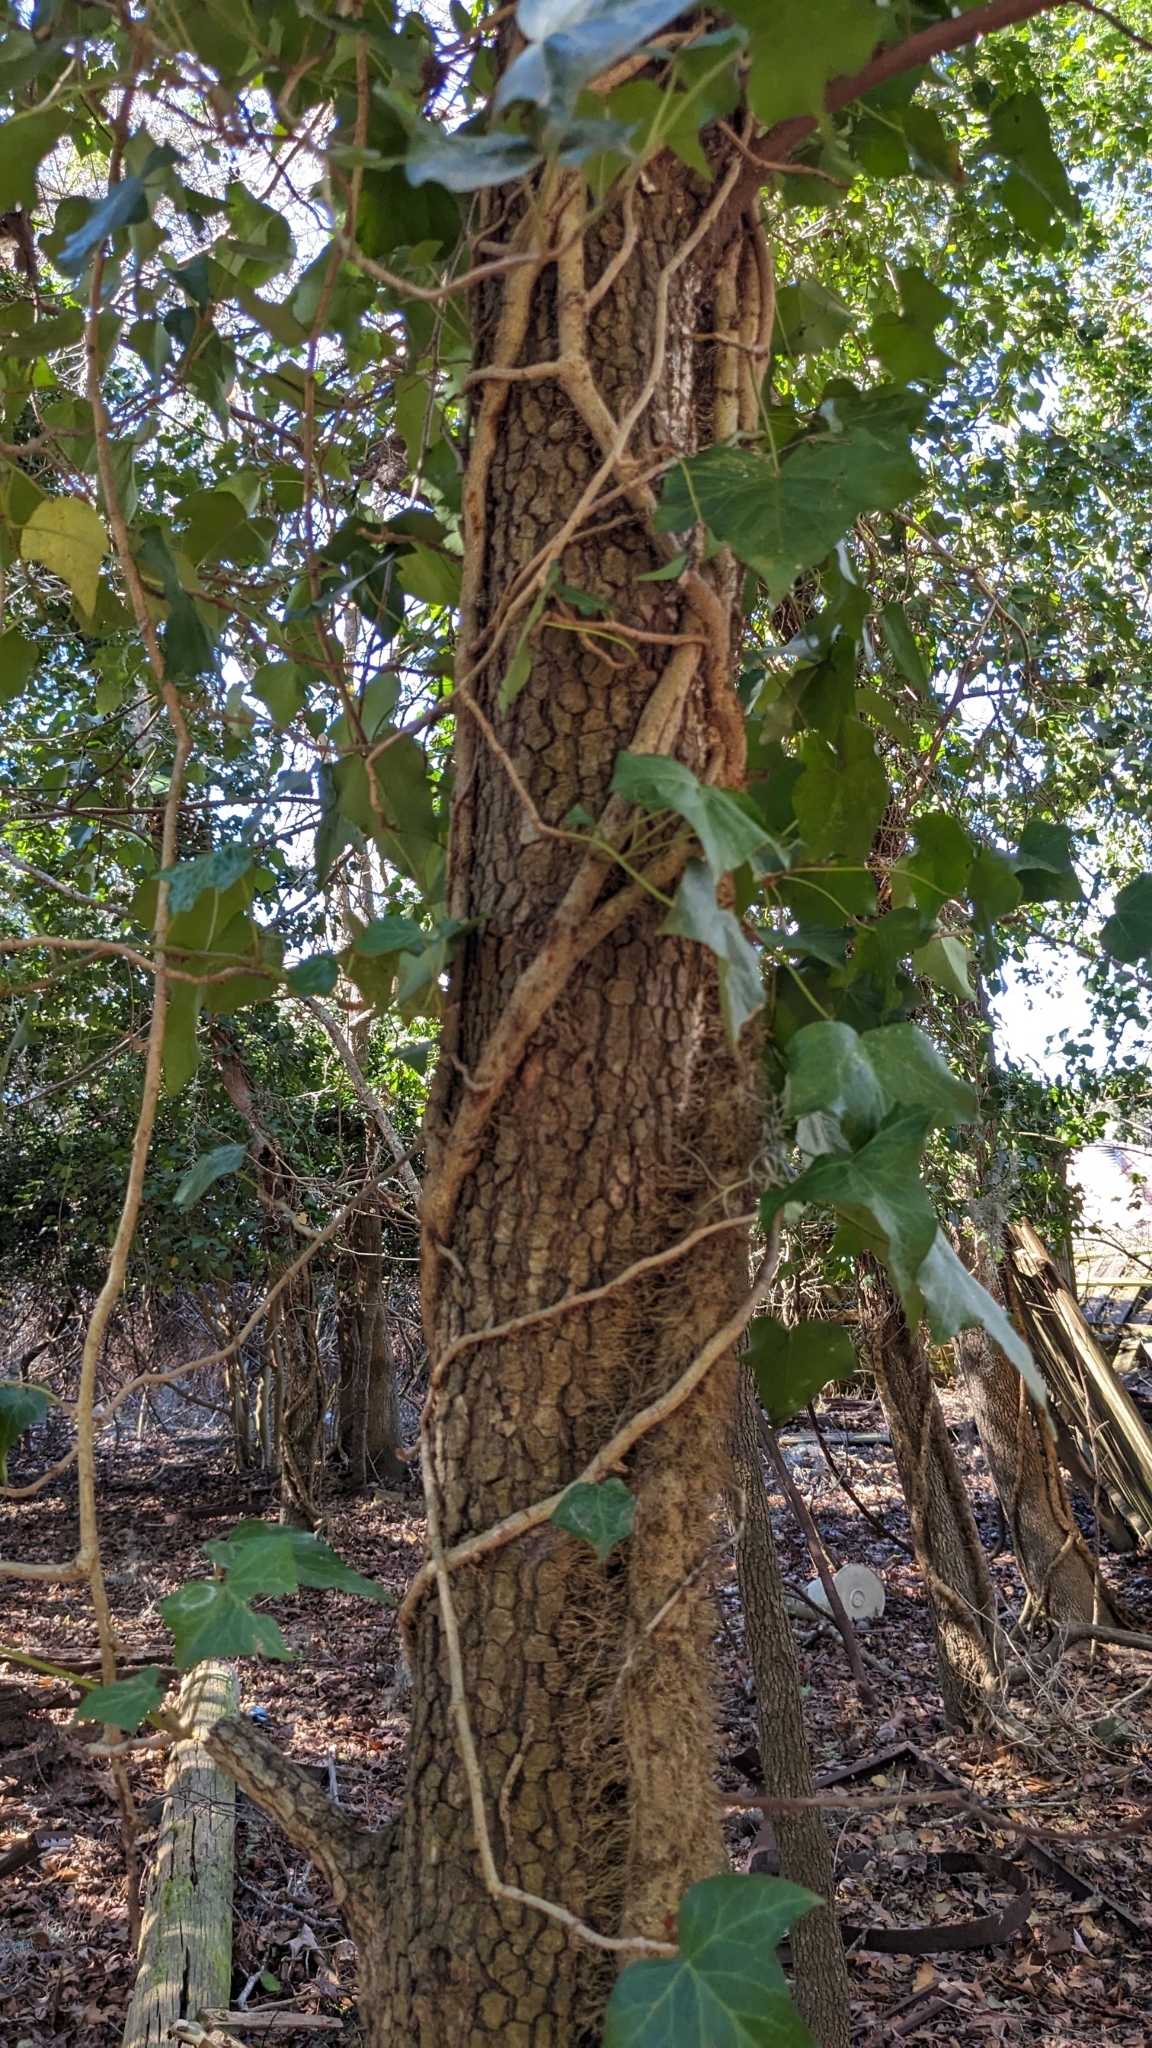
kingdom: Plantae
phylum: Tracheophyta
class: Magnoliopsida
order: Rosales
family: Rosaceae
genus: Prunus
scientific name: Prunus serotina
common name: Black cherry
